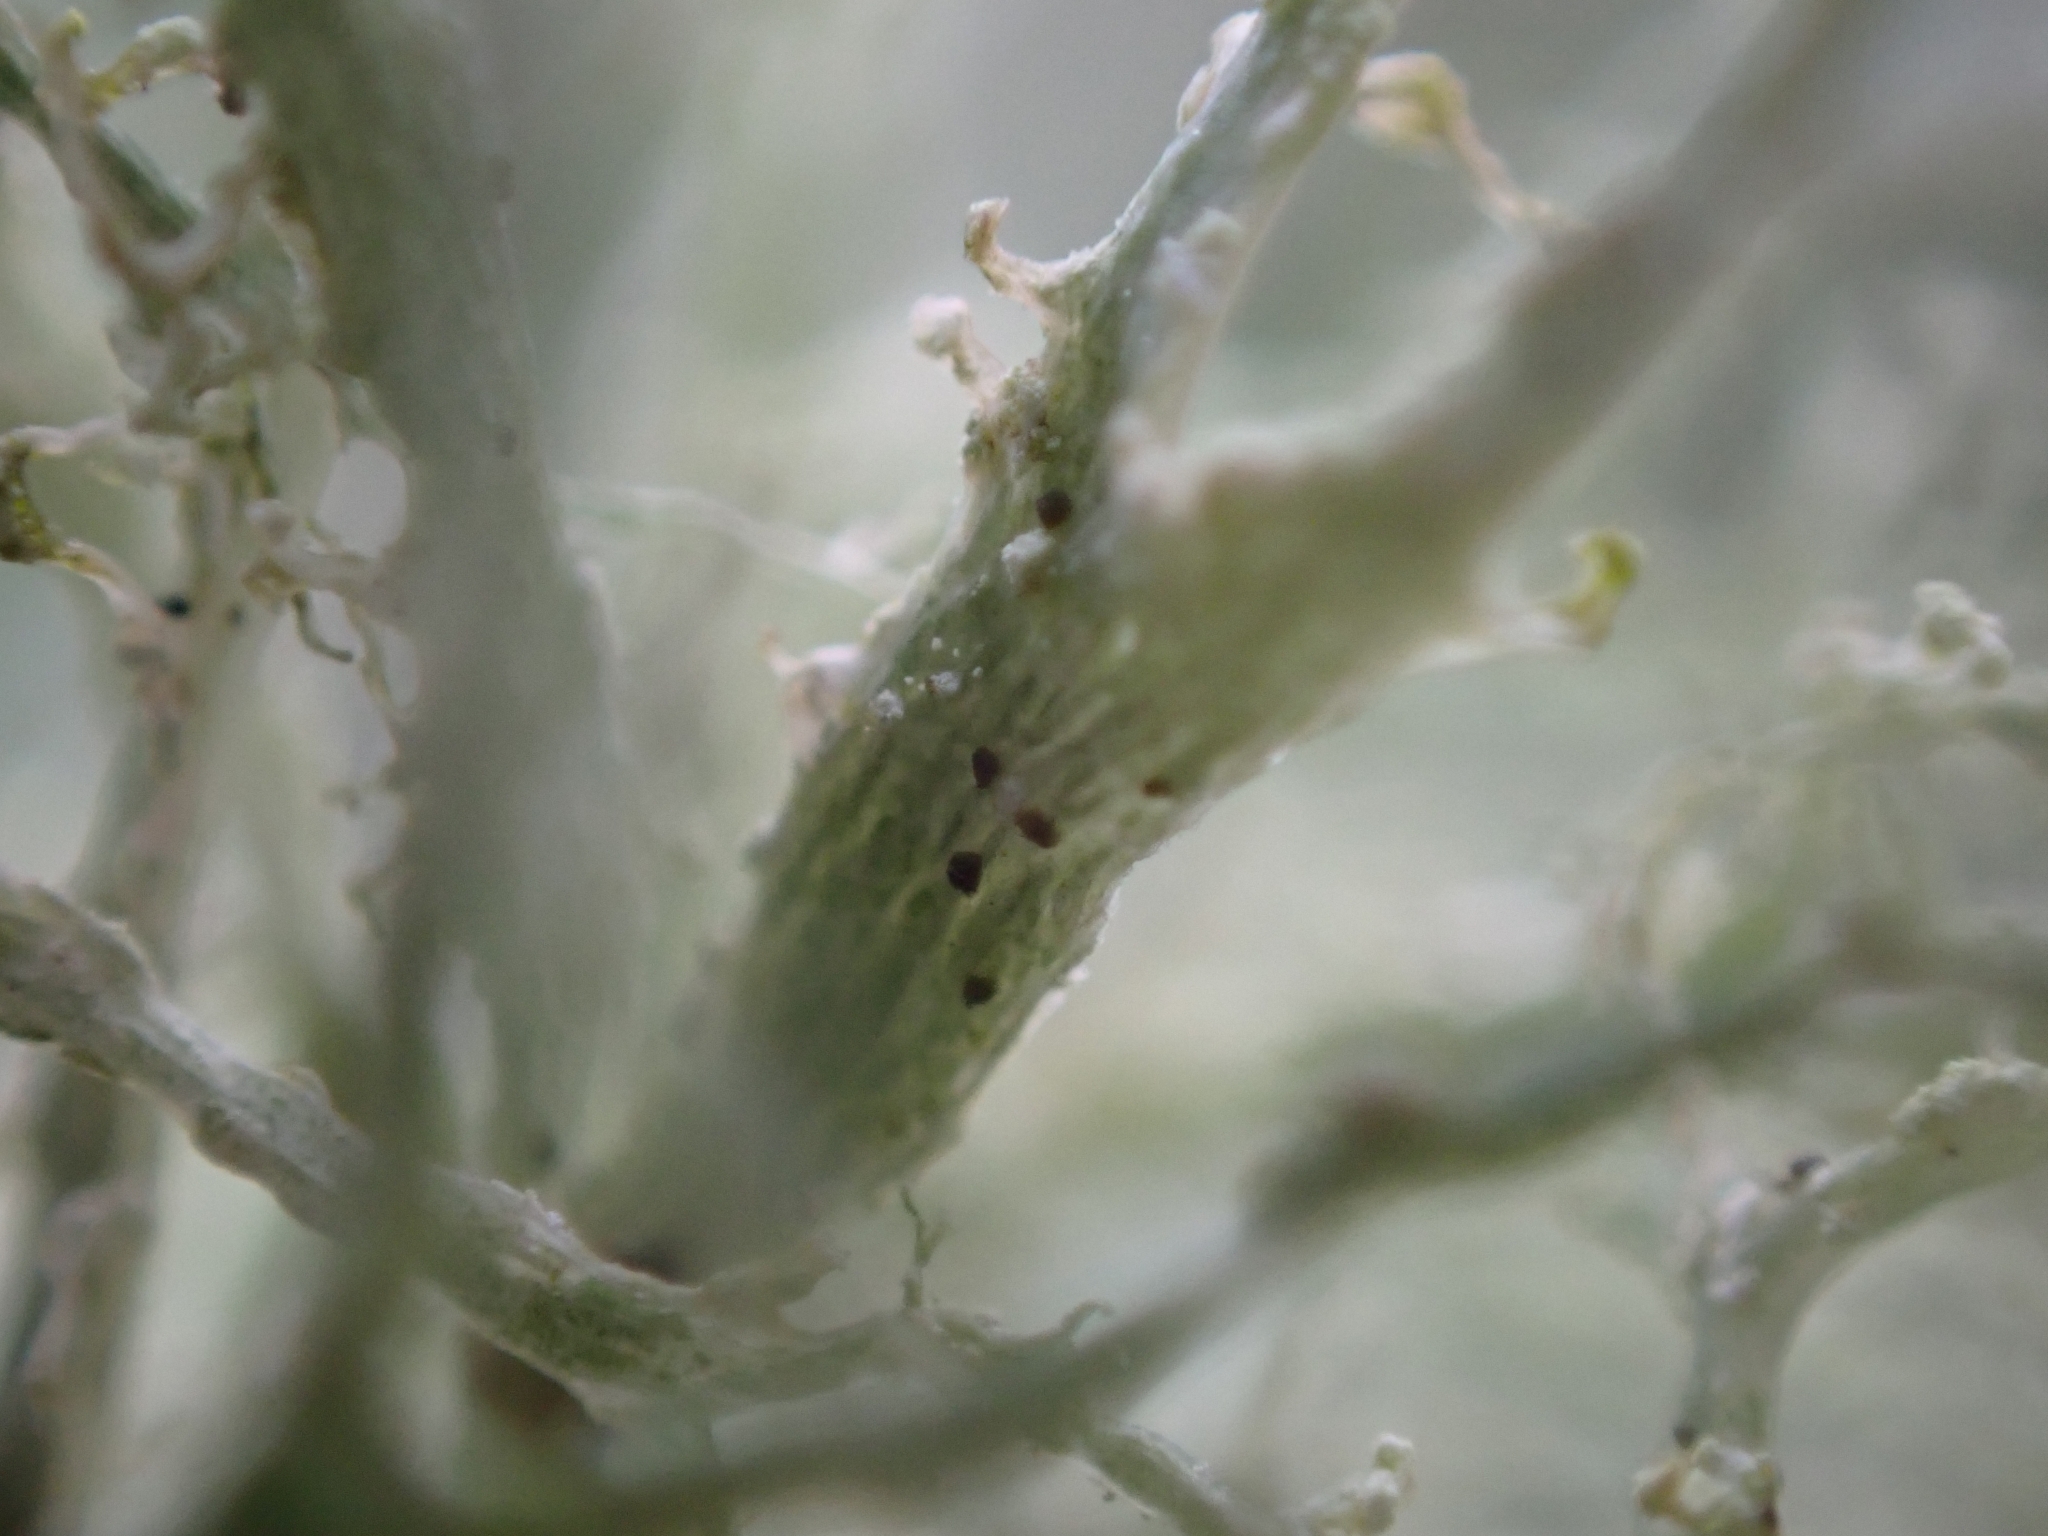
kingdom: Fungi
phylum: Ascomycota
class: Lecanoromycetes
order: Lecanorales
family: Ramalinaceae
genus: Ramalina
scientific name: Ramalina farinacea
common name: Farinose cartilage lichen
